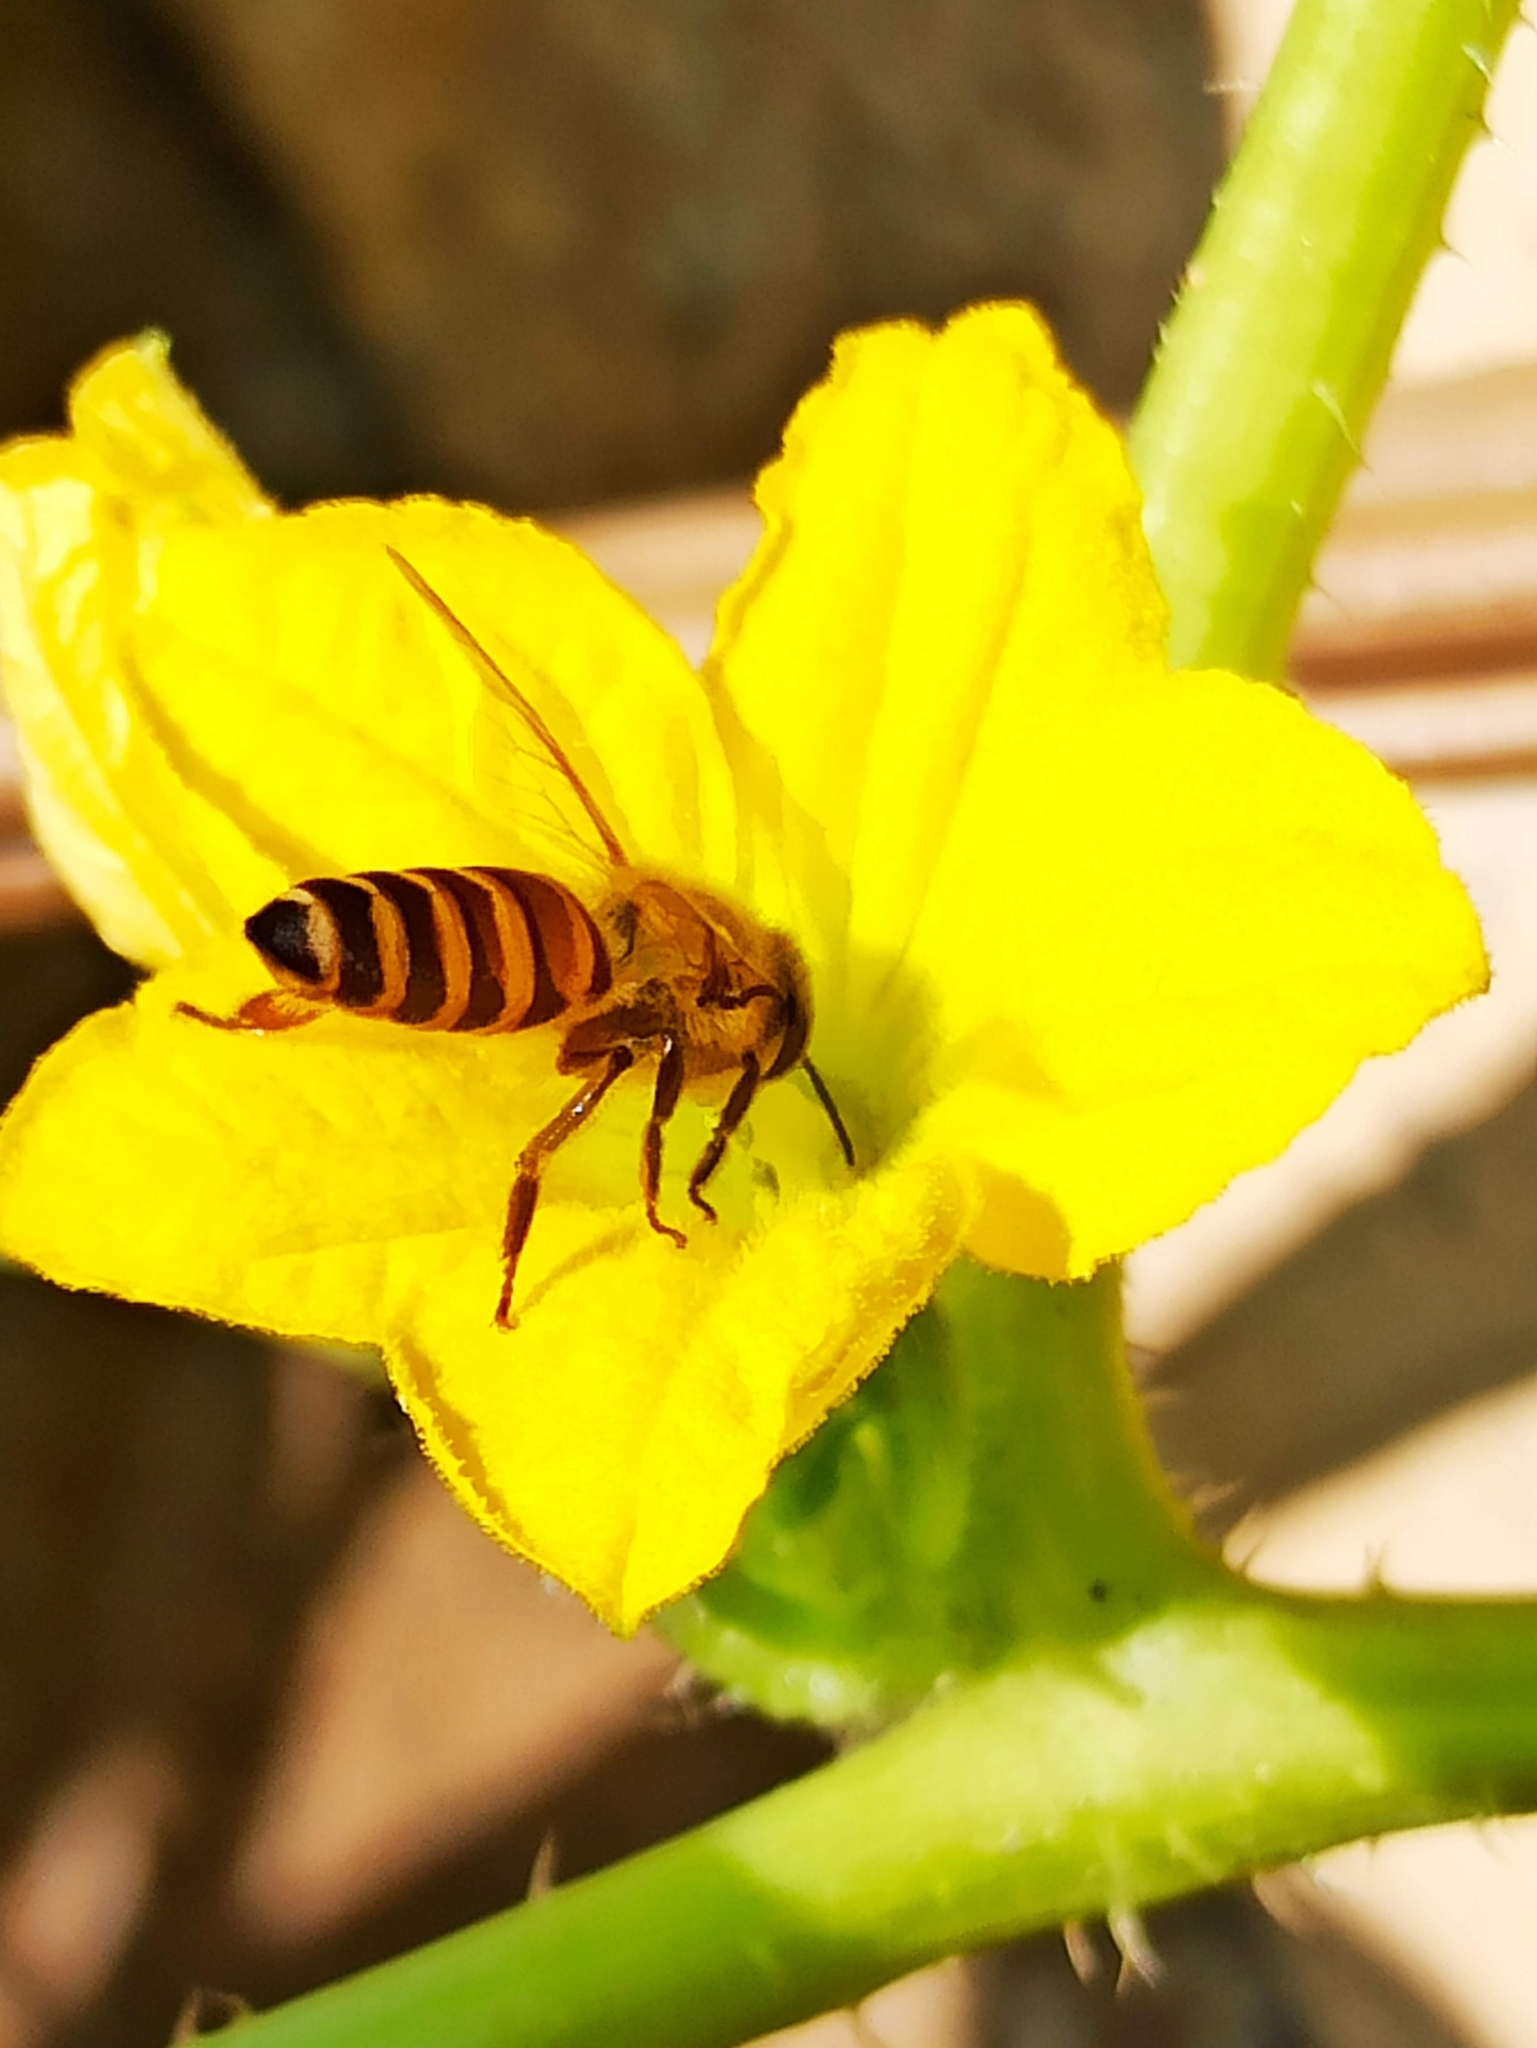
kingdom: Animalia
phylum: Arthropoda
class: Insecta
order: Hymenoptera
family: Apidae
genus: Apis
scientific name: Apis cerana
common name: Honey bee
